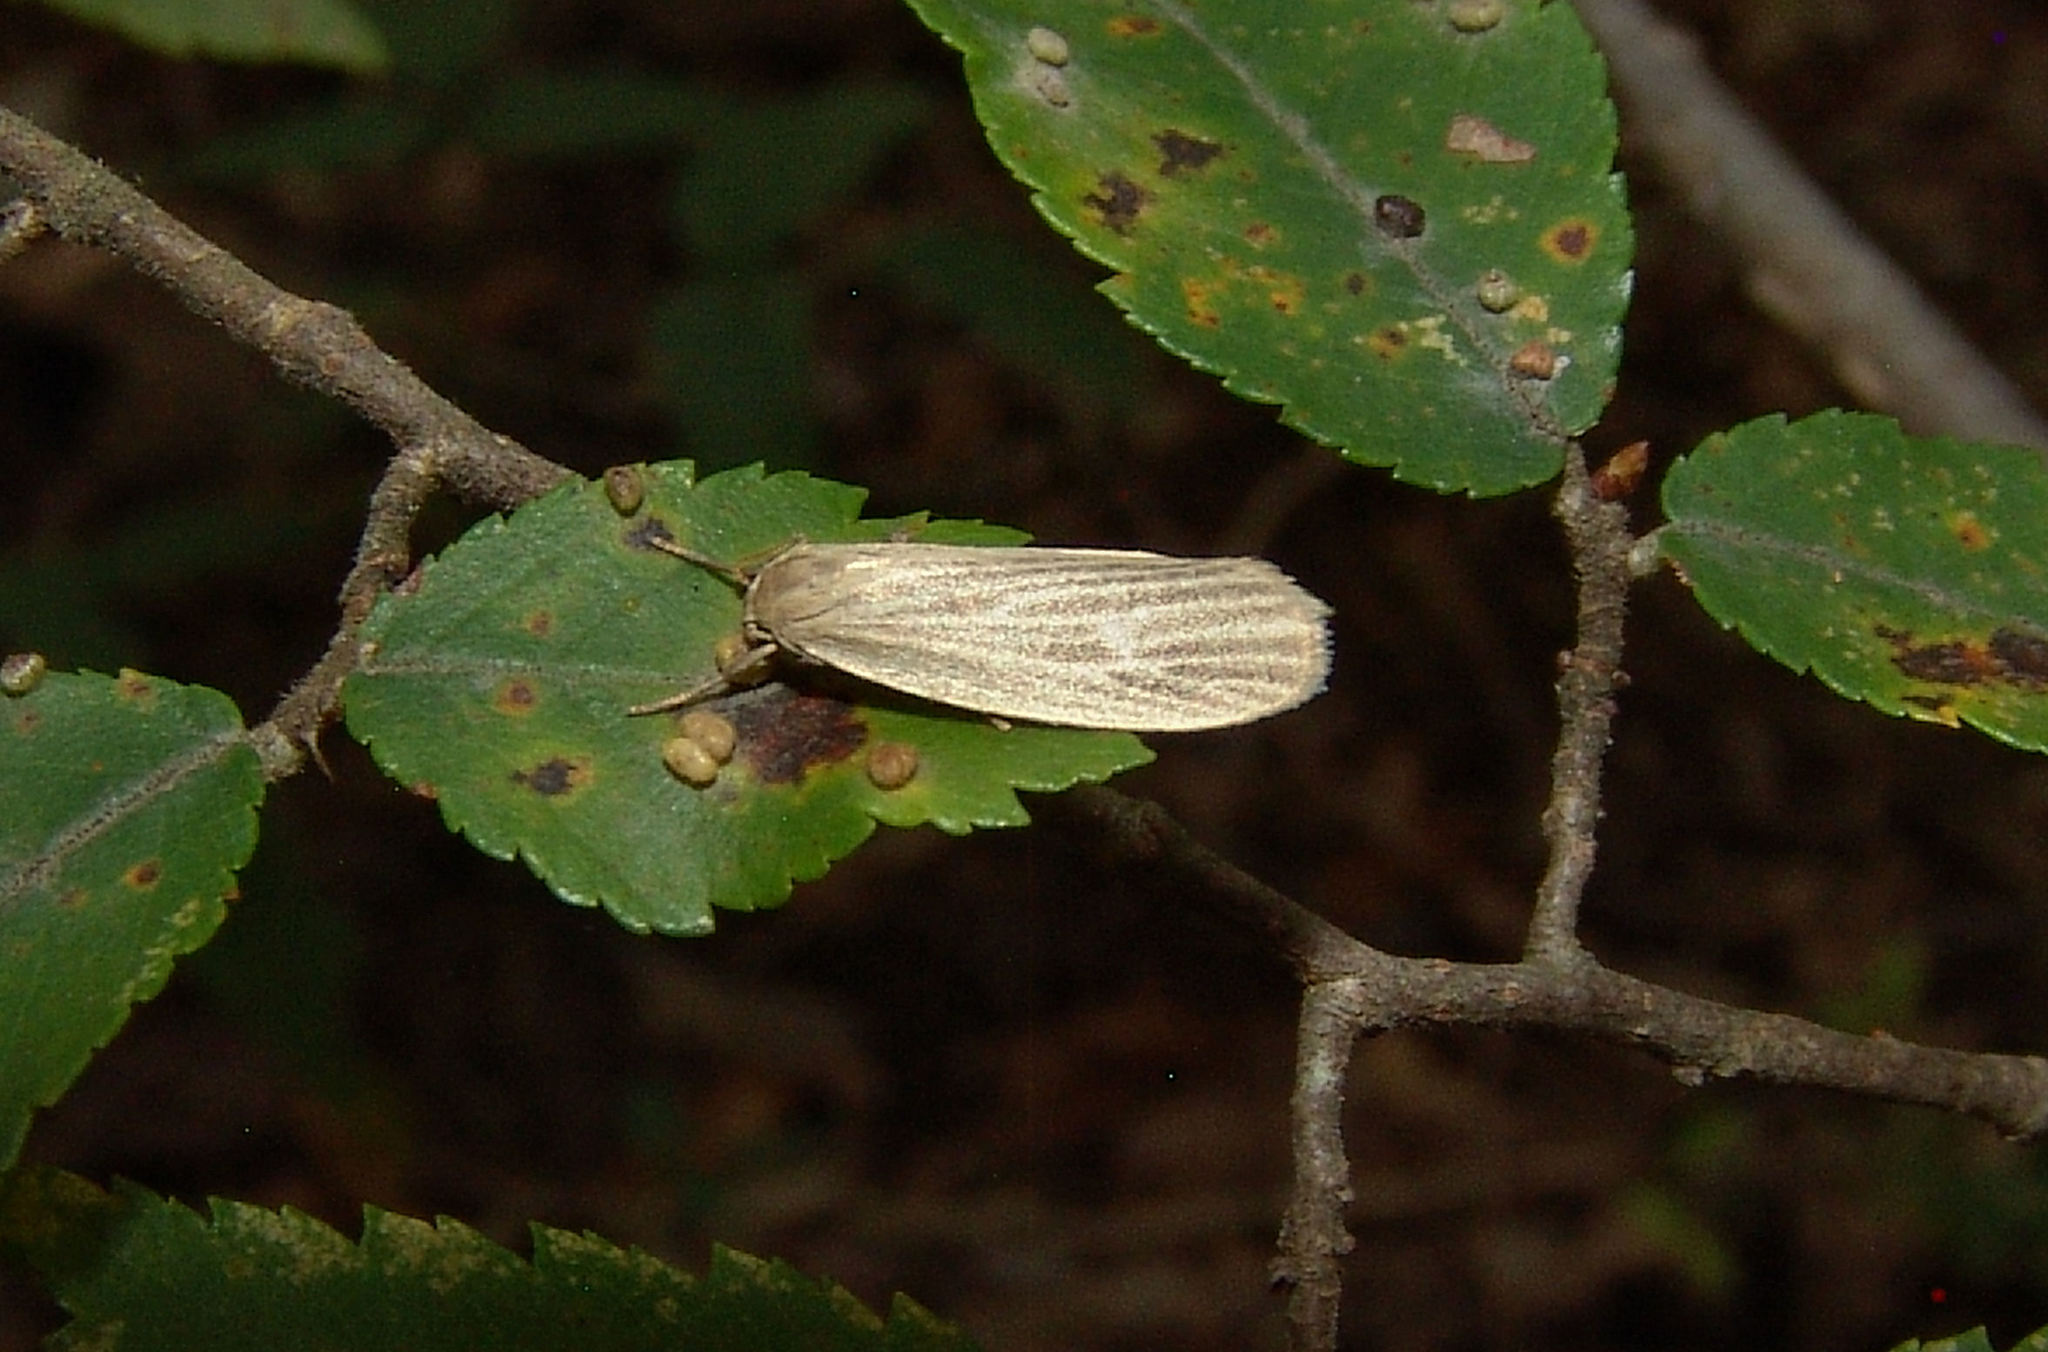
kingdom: Animalia
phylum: Arthropoda
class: Insecta
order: Lepidoptera
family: Erebidae
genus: Crambidia
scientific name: Crambidia pallida
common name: Pale lichen moth
